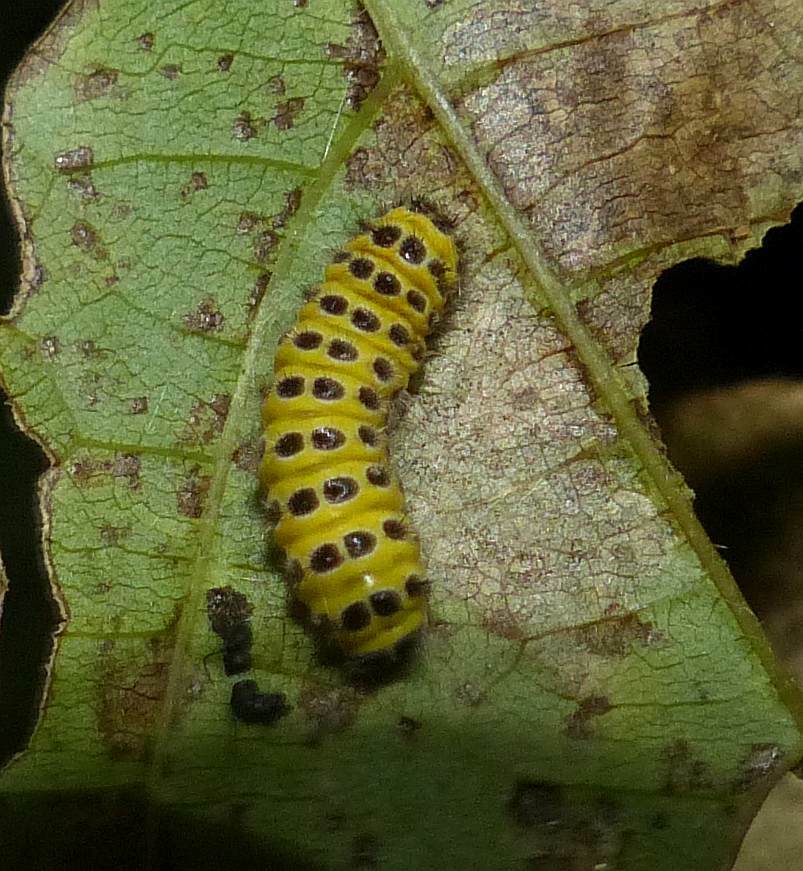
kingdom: Animalia
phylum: Arthropoda
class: Insecta
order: Lepidoptera
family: Zygaenidae
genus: Harrisina
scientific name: Harrisina americana
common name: Grapeleaf skeletonizer moth
